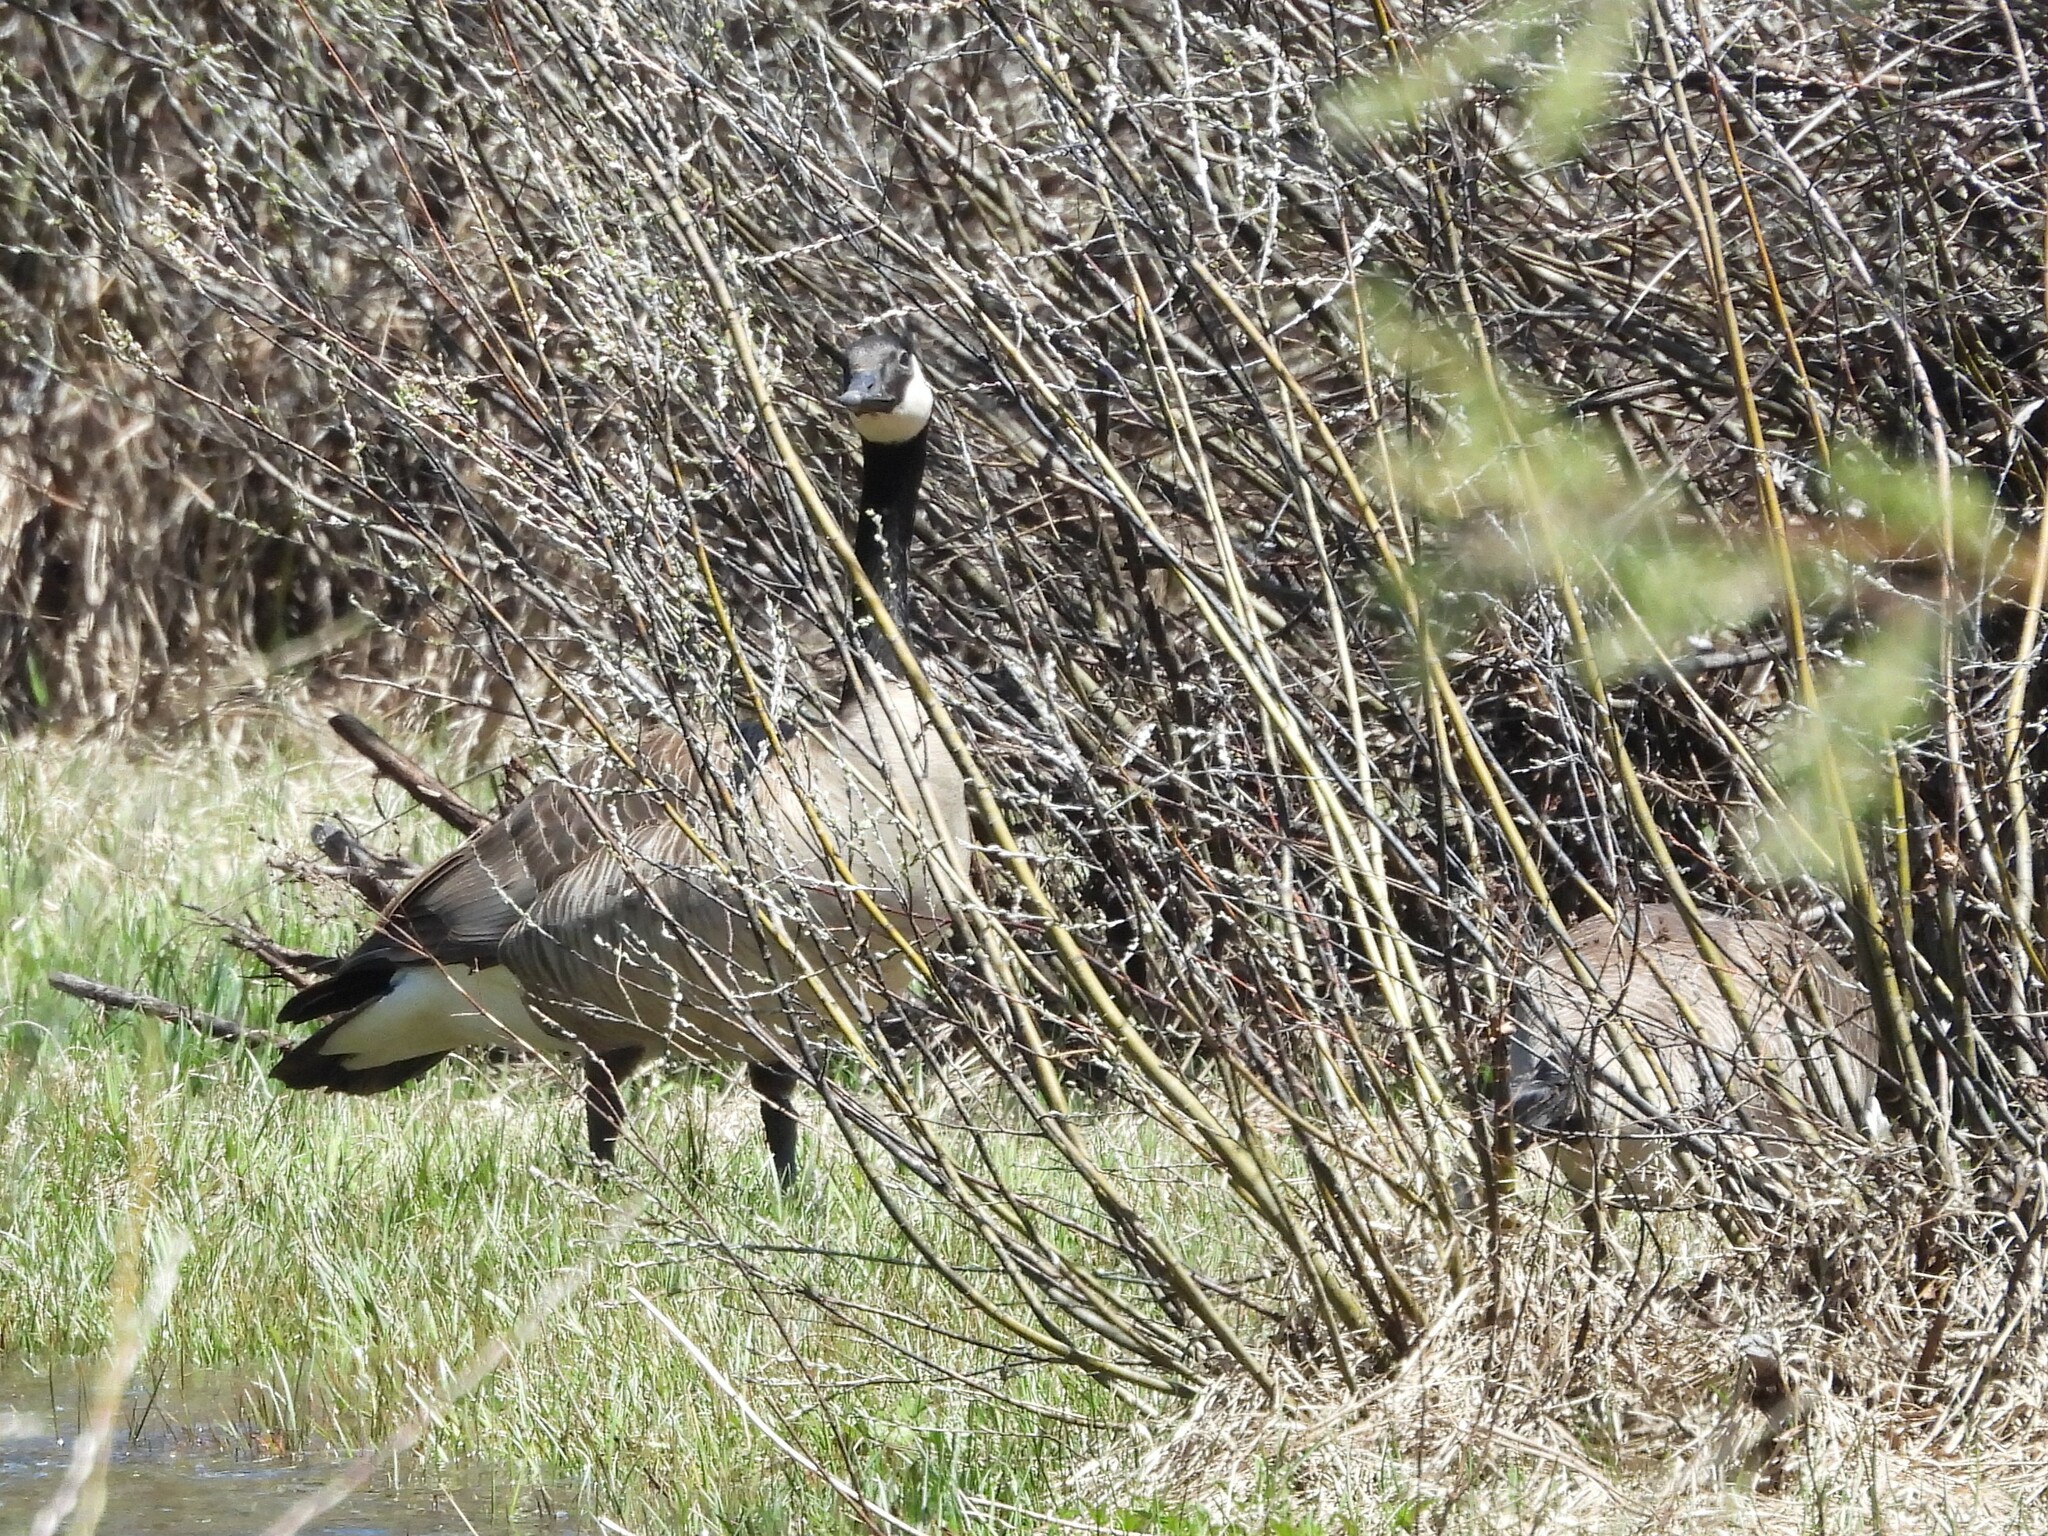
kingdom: Animalia
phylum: Chordata
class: Aves
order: Anseriformes
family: Anatidae
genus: Branta
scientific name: Branta canadensis
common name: Canada goose
